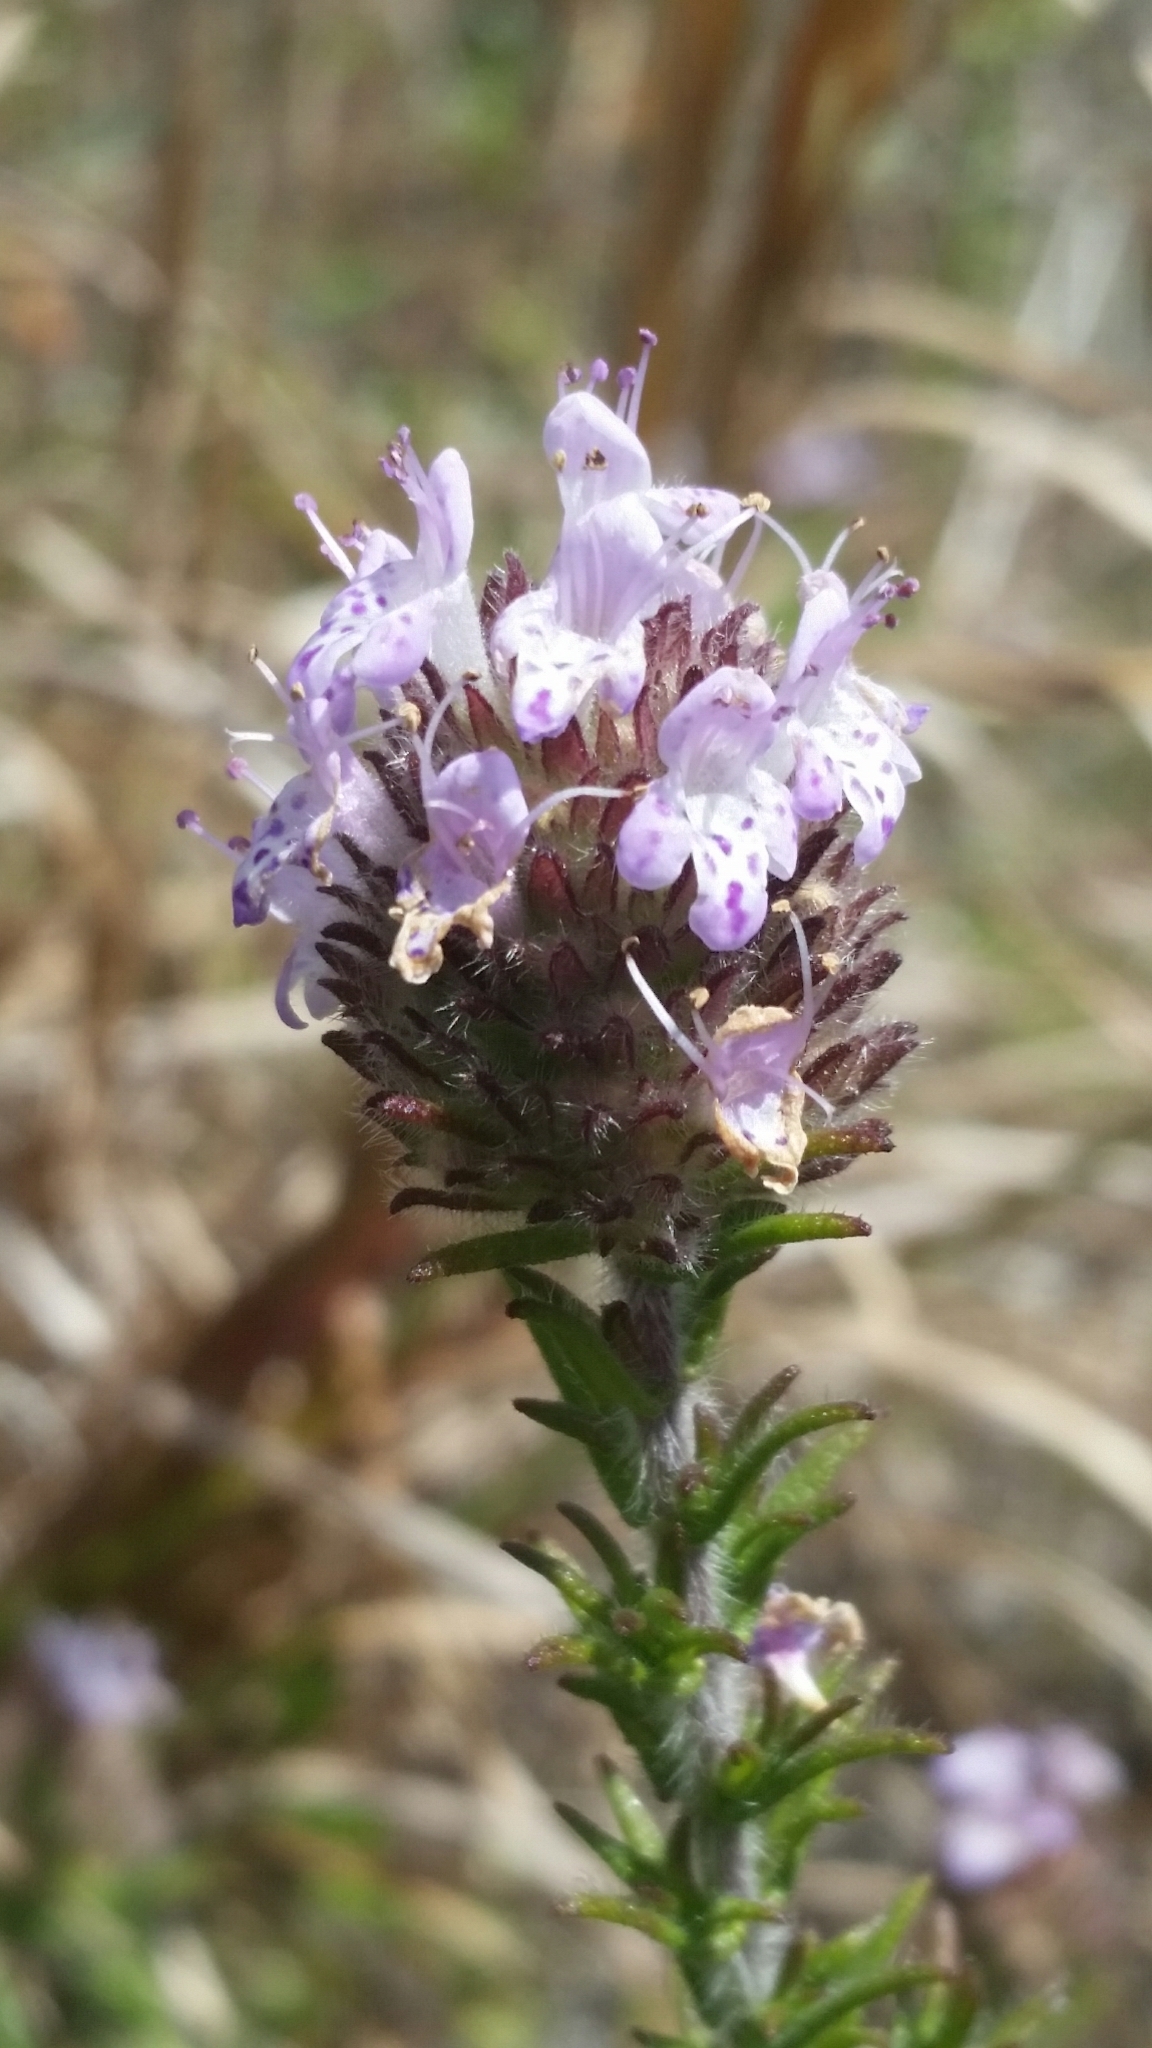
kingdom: Plantae
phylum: Tracheophyta
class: Magnoliopsida
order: Lamiales
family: Lamiaceae
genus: Piloblephis
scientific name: Piloblephis rigida
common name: Wild pennyroyal
